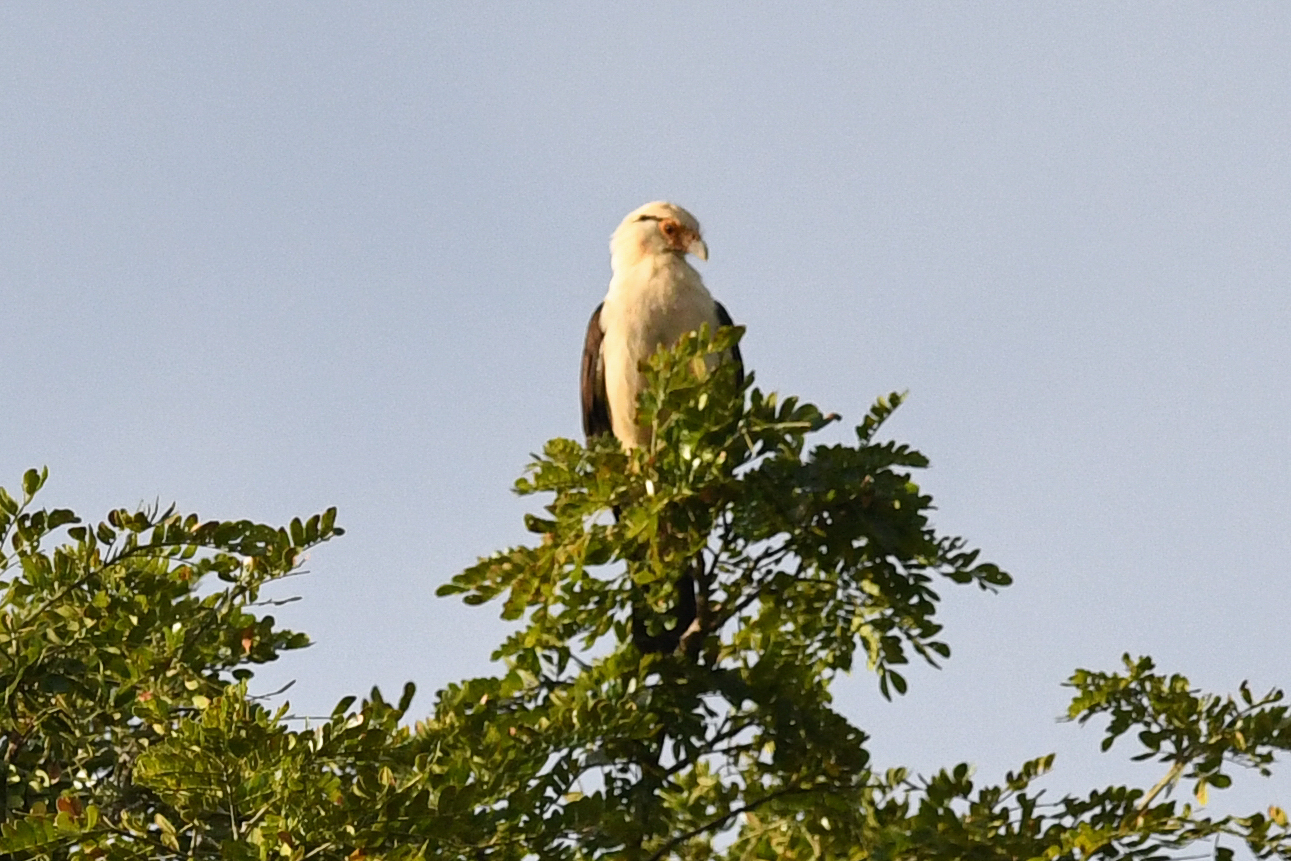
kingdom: Animalia
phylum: Chordata
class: Aves
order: Falconiformes
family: Falconidae
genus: Daptrius
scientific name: Daptrius
